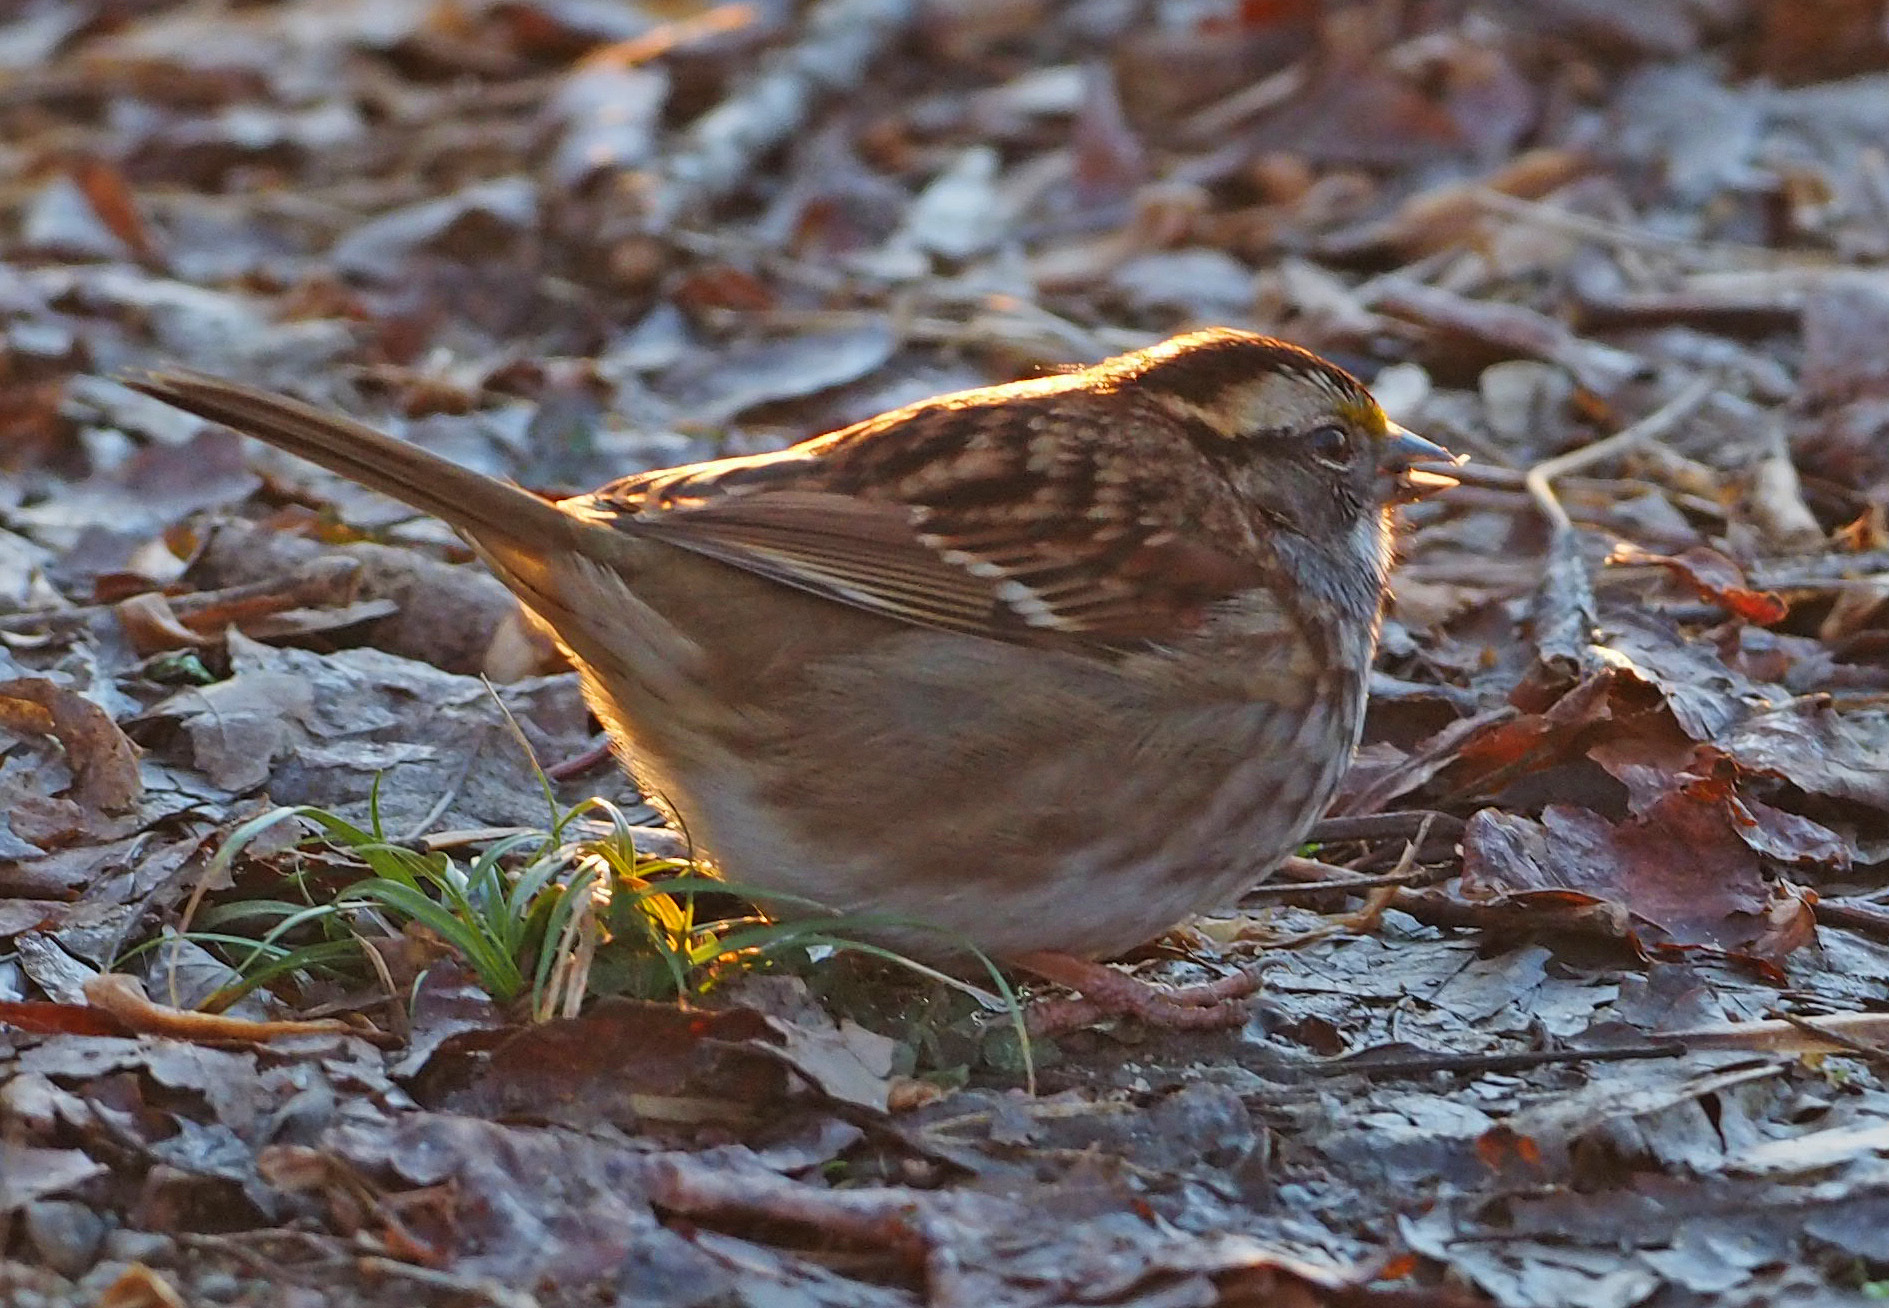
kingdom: Animalia
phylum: Chordata
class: Aves
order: Passeriformes
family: Passerellidae
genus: Zonotrichia
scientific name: Zonotrichia albicollis
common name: White-throated sparrow
